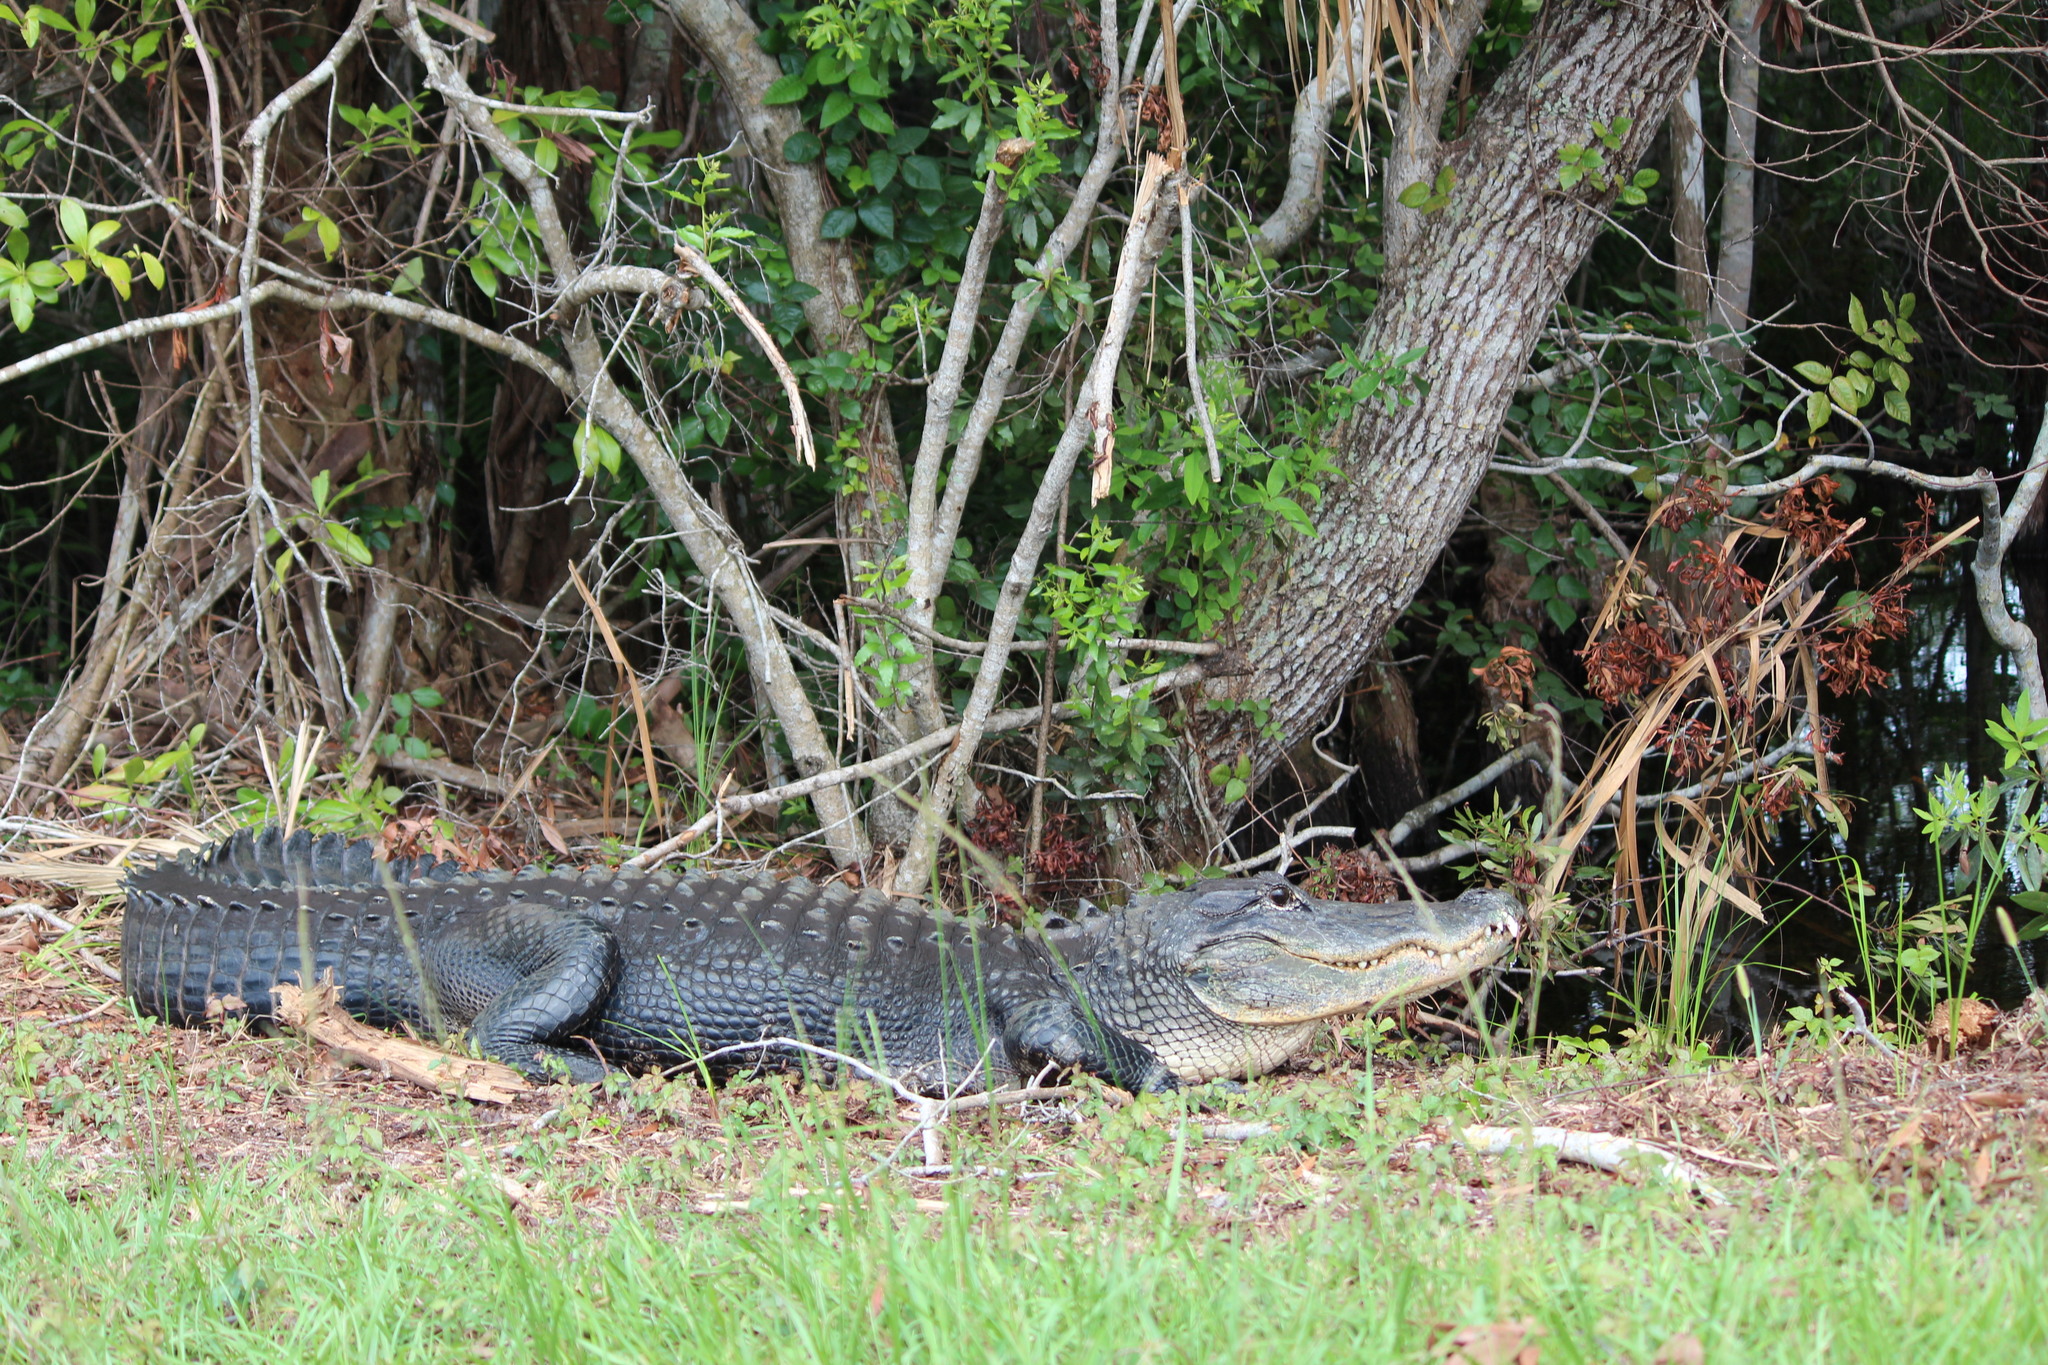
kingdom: Animalia
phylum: Chordata
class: Crocodylia
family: Alligatoridae
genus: Alligator
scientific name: Alligator mississippiensis
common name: American alligator
